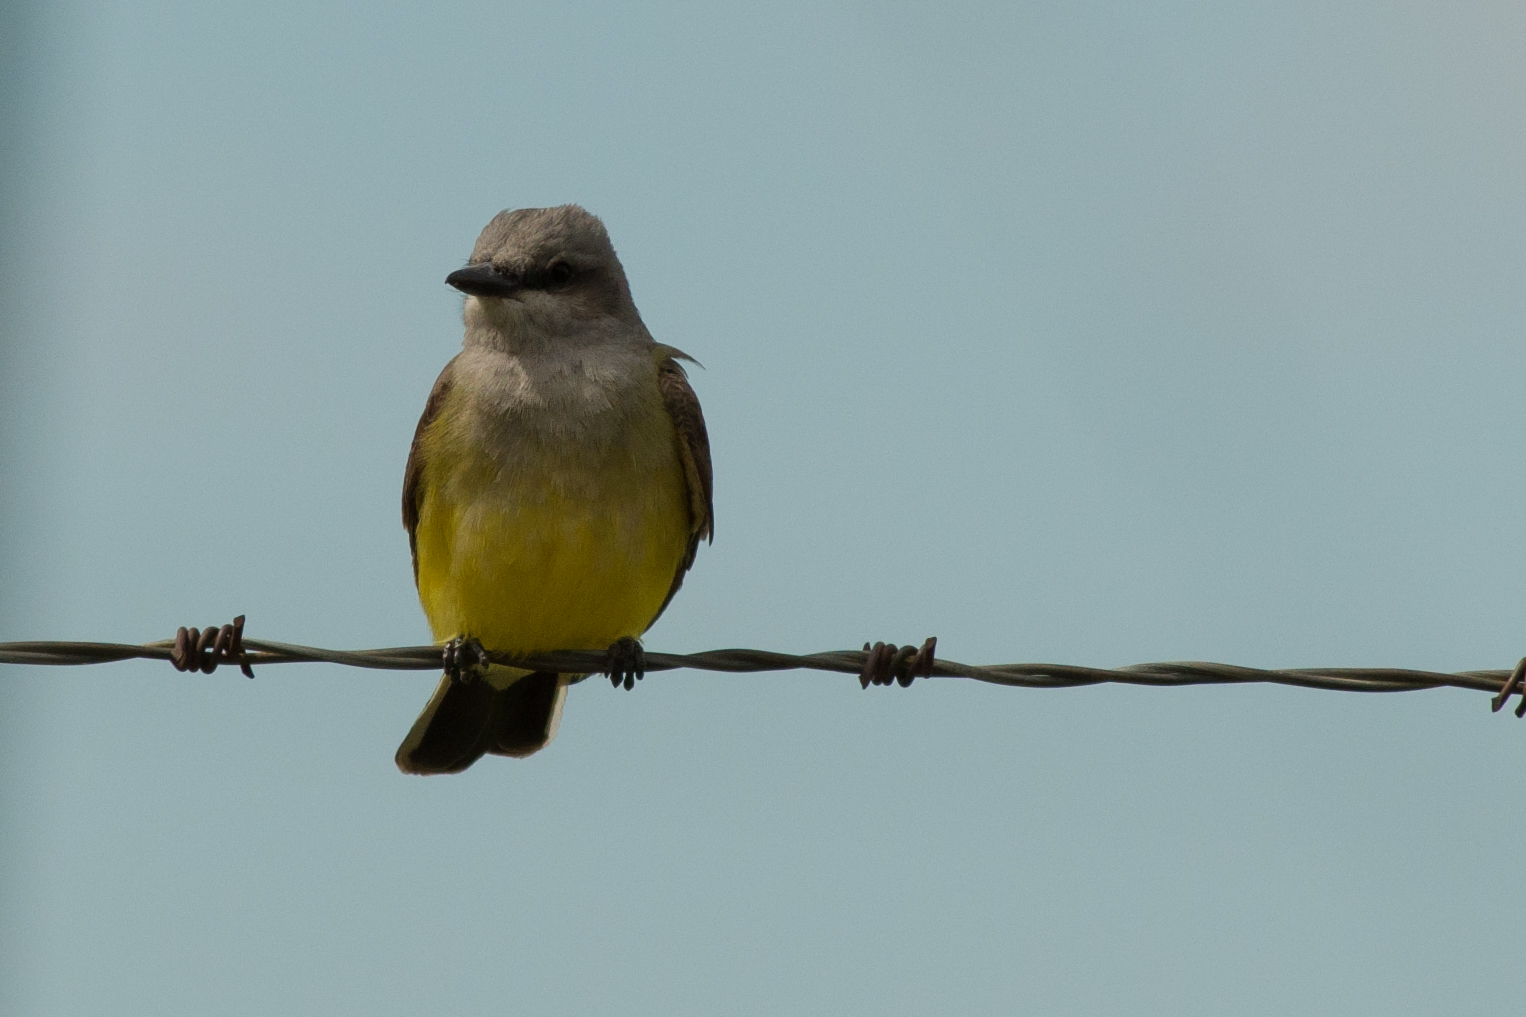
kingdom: Animalia
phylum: Chordata
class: Aves
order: Passeriformes
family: Tyrannidae
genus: Tyrannus
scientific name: Tyrannus verticalis
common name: Western kingbird
